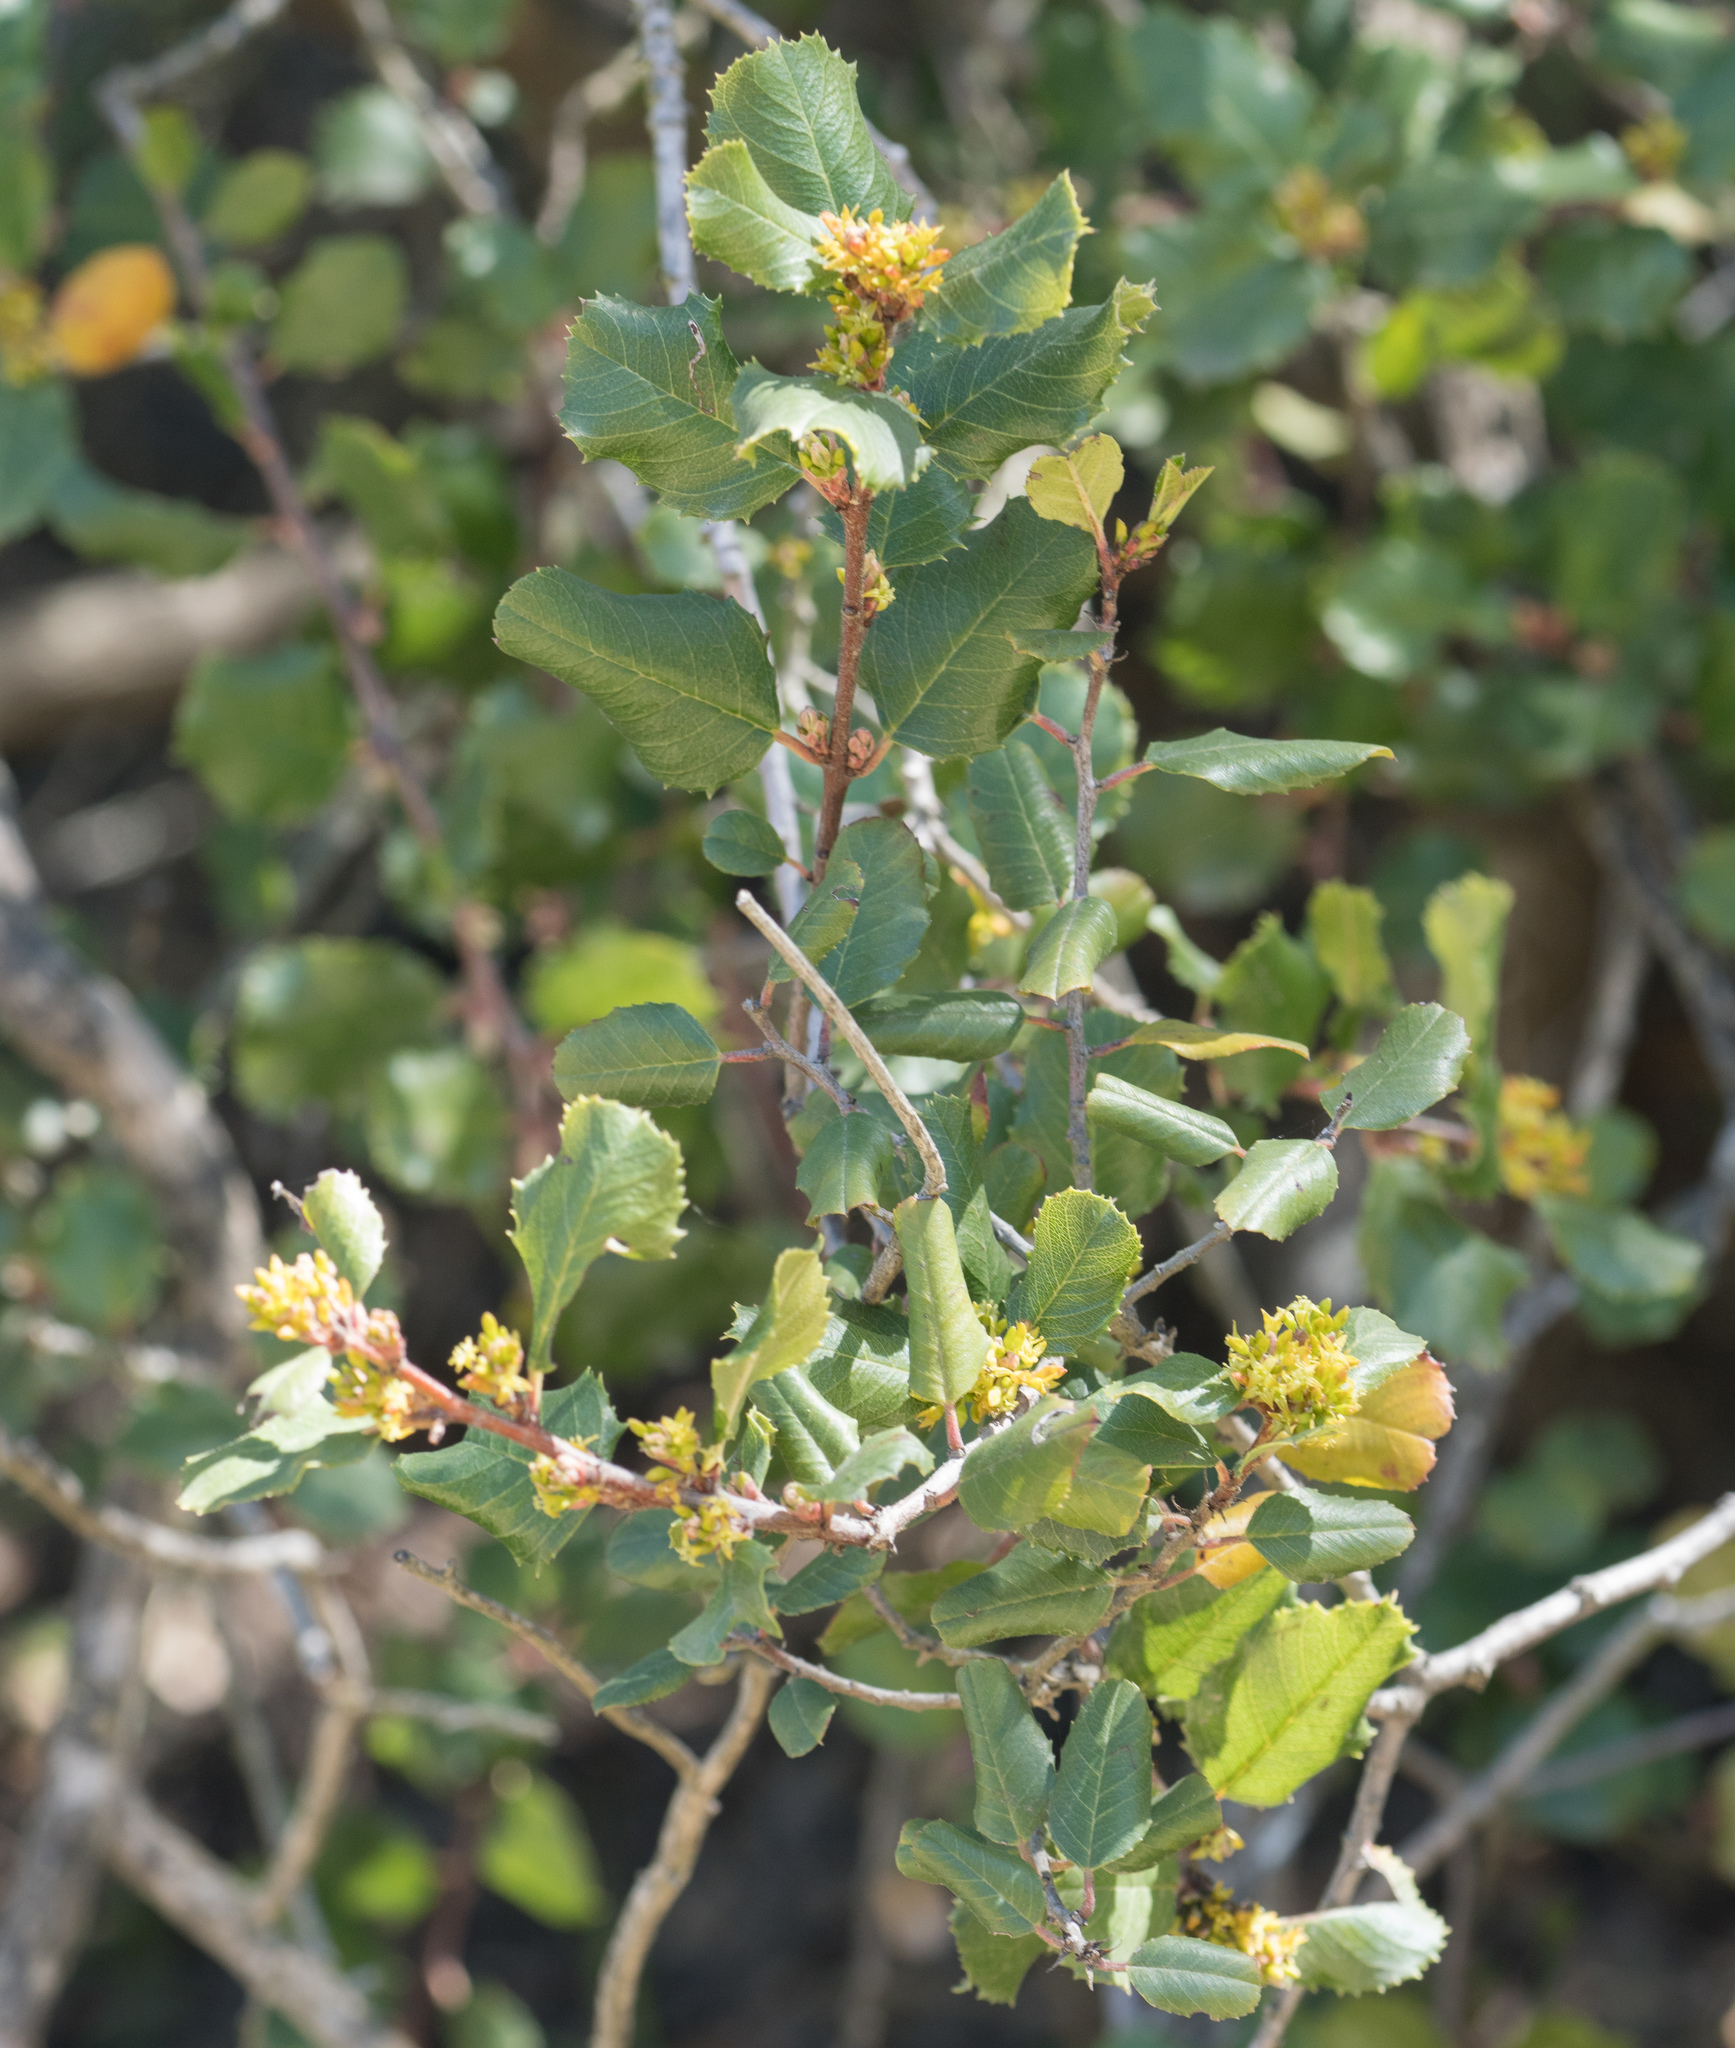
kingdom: Plantae
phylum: Tracheophyta
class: Magnoliopsida
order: Rosales
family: Rhamnaceae
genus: Endotropis
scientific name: Endotropis crocea
